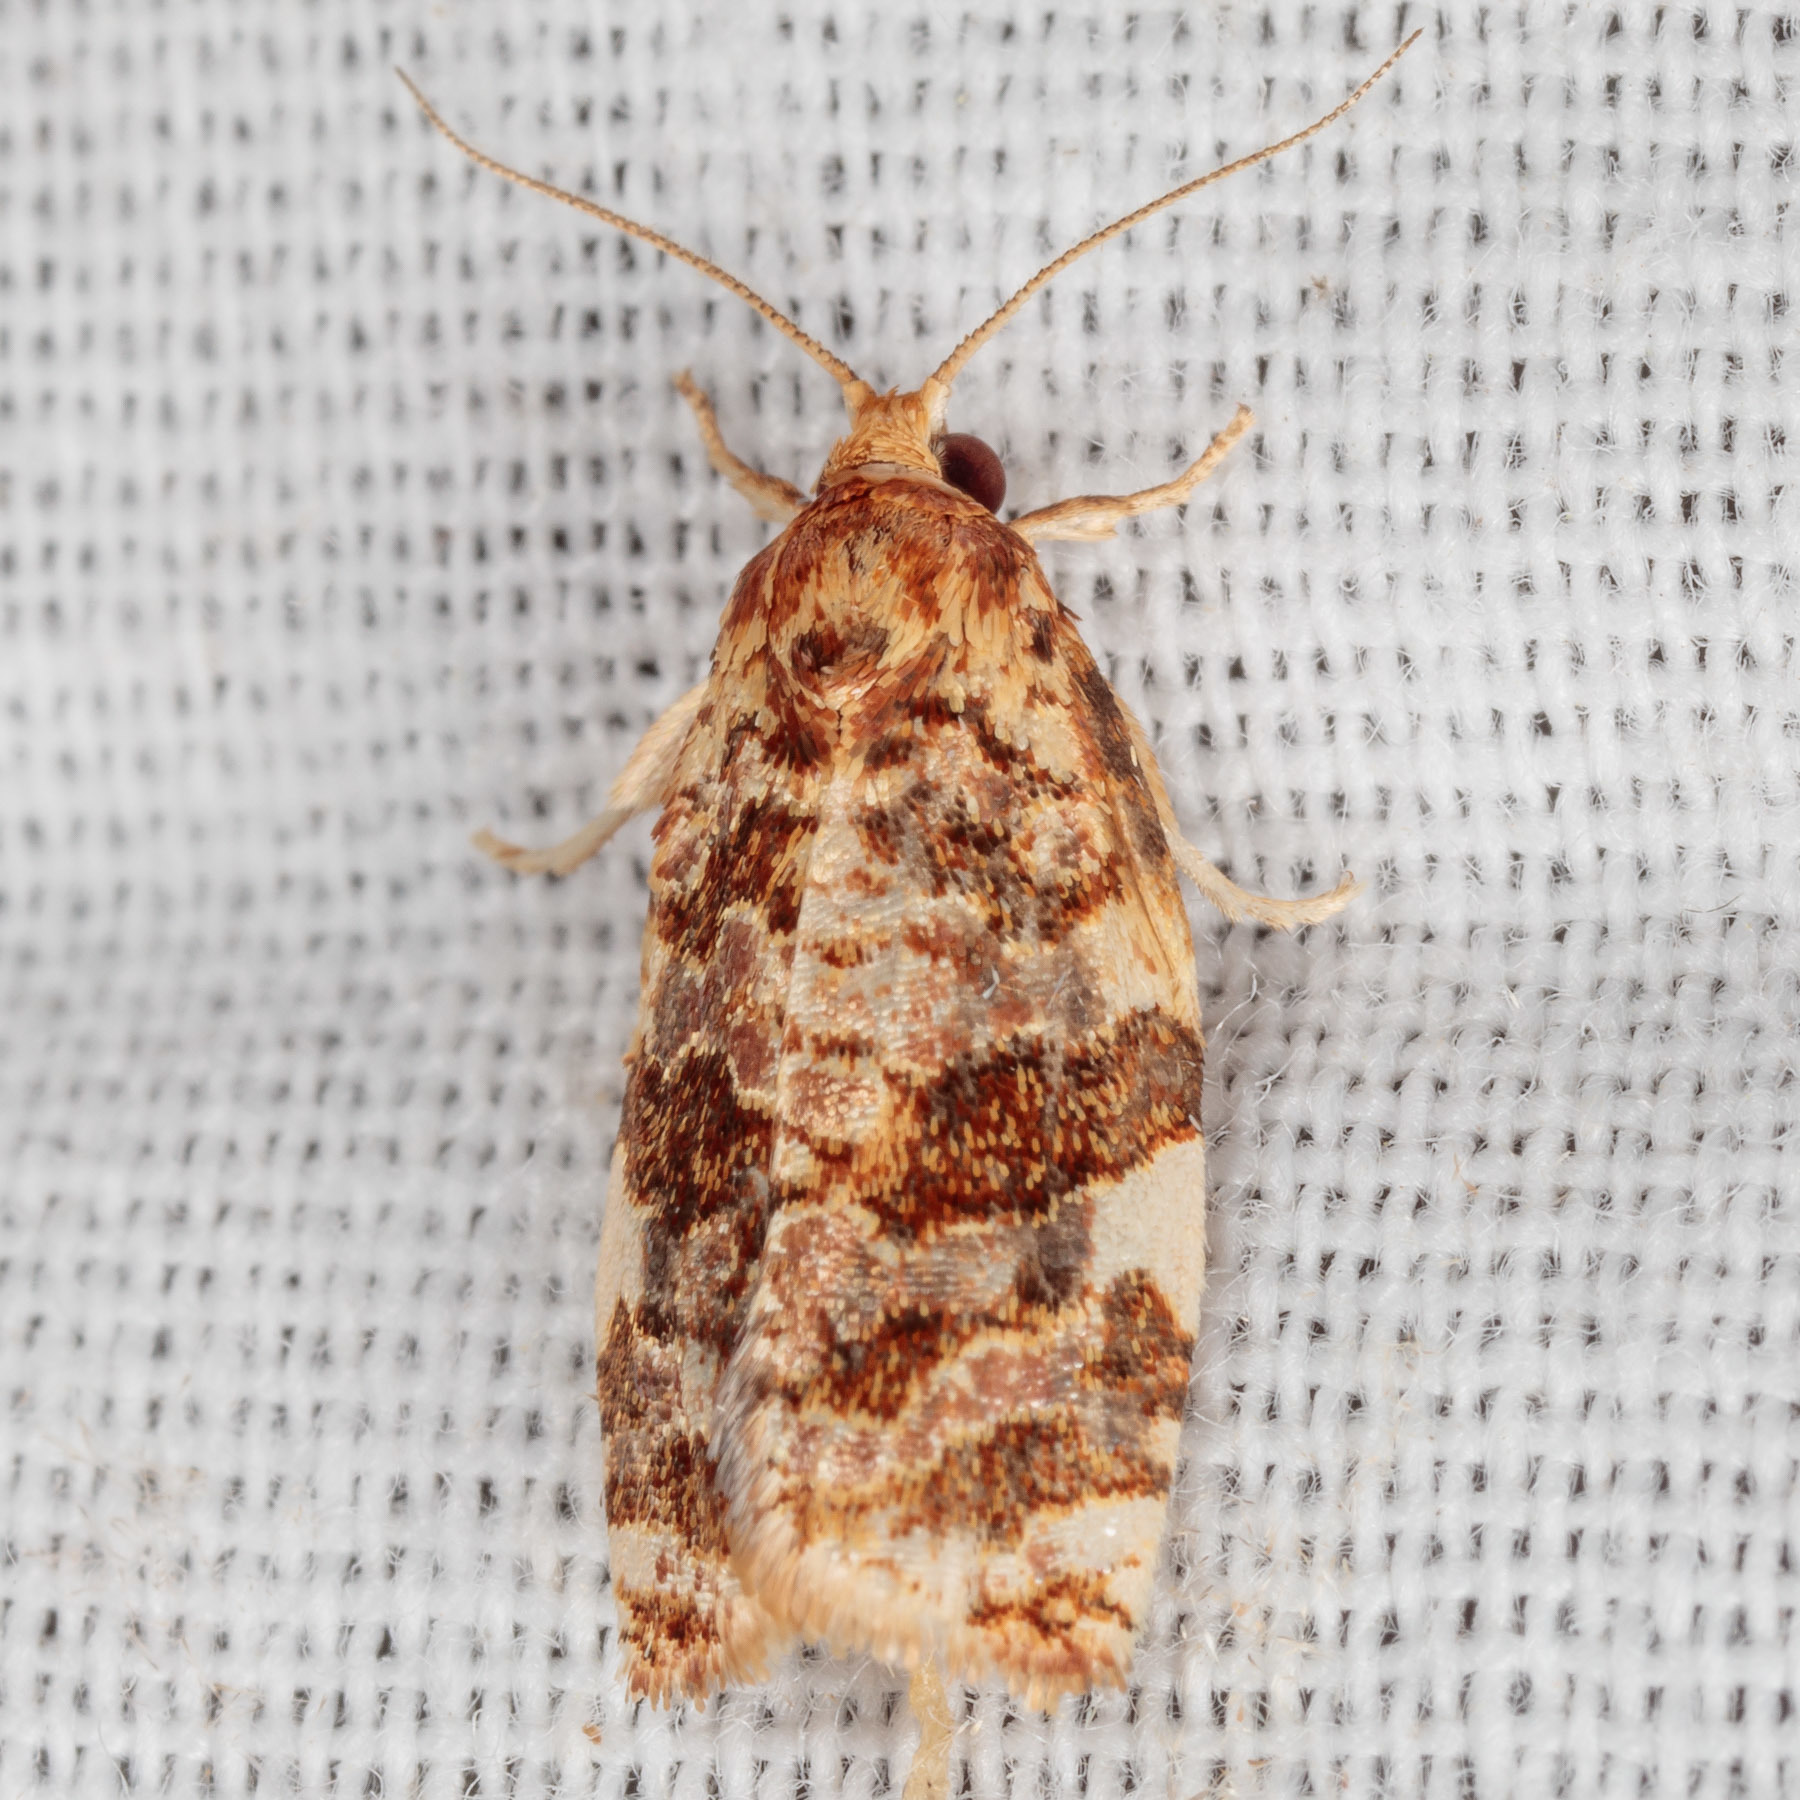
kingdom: Animalia
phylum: Arthropoda
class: Insecta
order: Lepidoptera
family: Tortricidae
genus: Archips
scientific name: Archips argyrospila
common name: Fruit-tree leafroller moth
